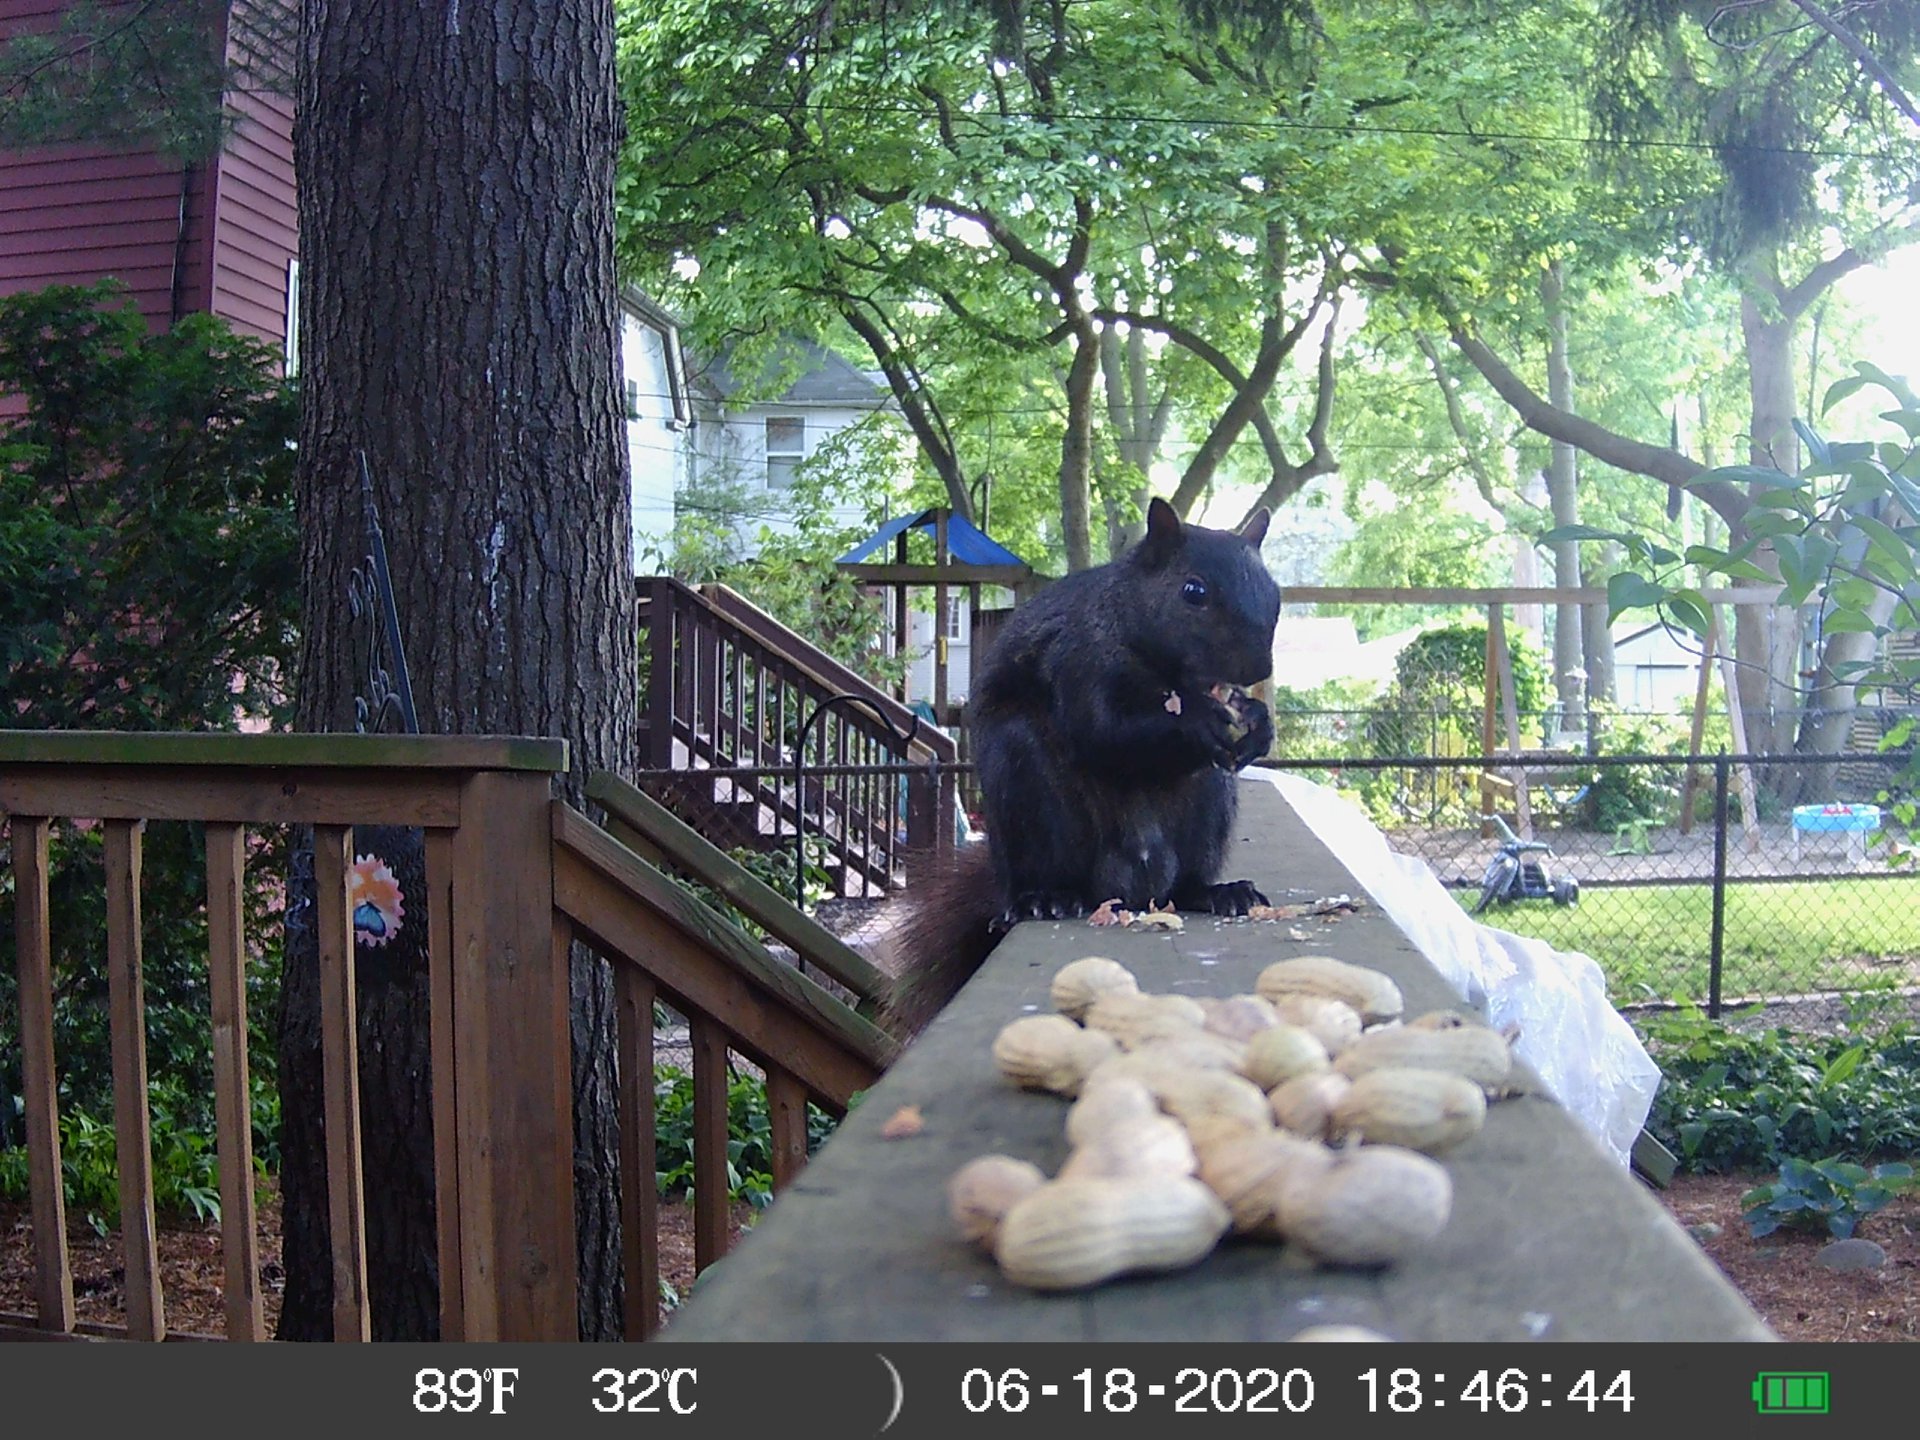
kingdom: Animalia
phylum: Chordata
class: Mammalia
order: Rodentia
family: Sciuridae
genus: Sciurus
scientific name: Sciurus carolinensis
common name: Eastern gray squirrel
